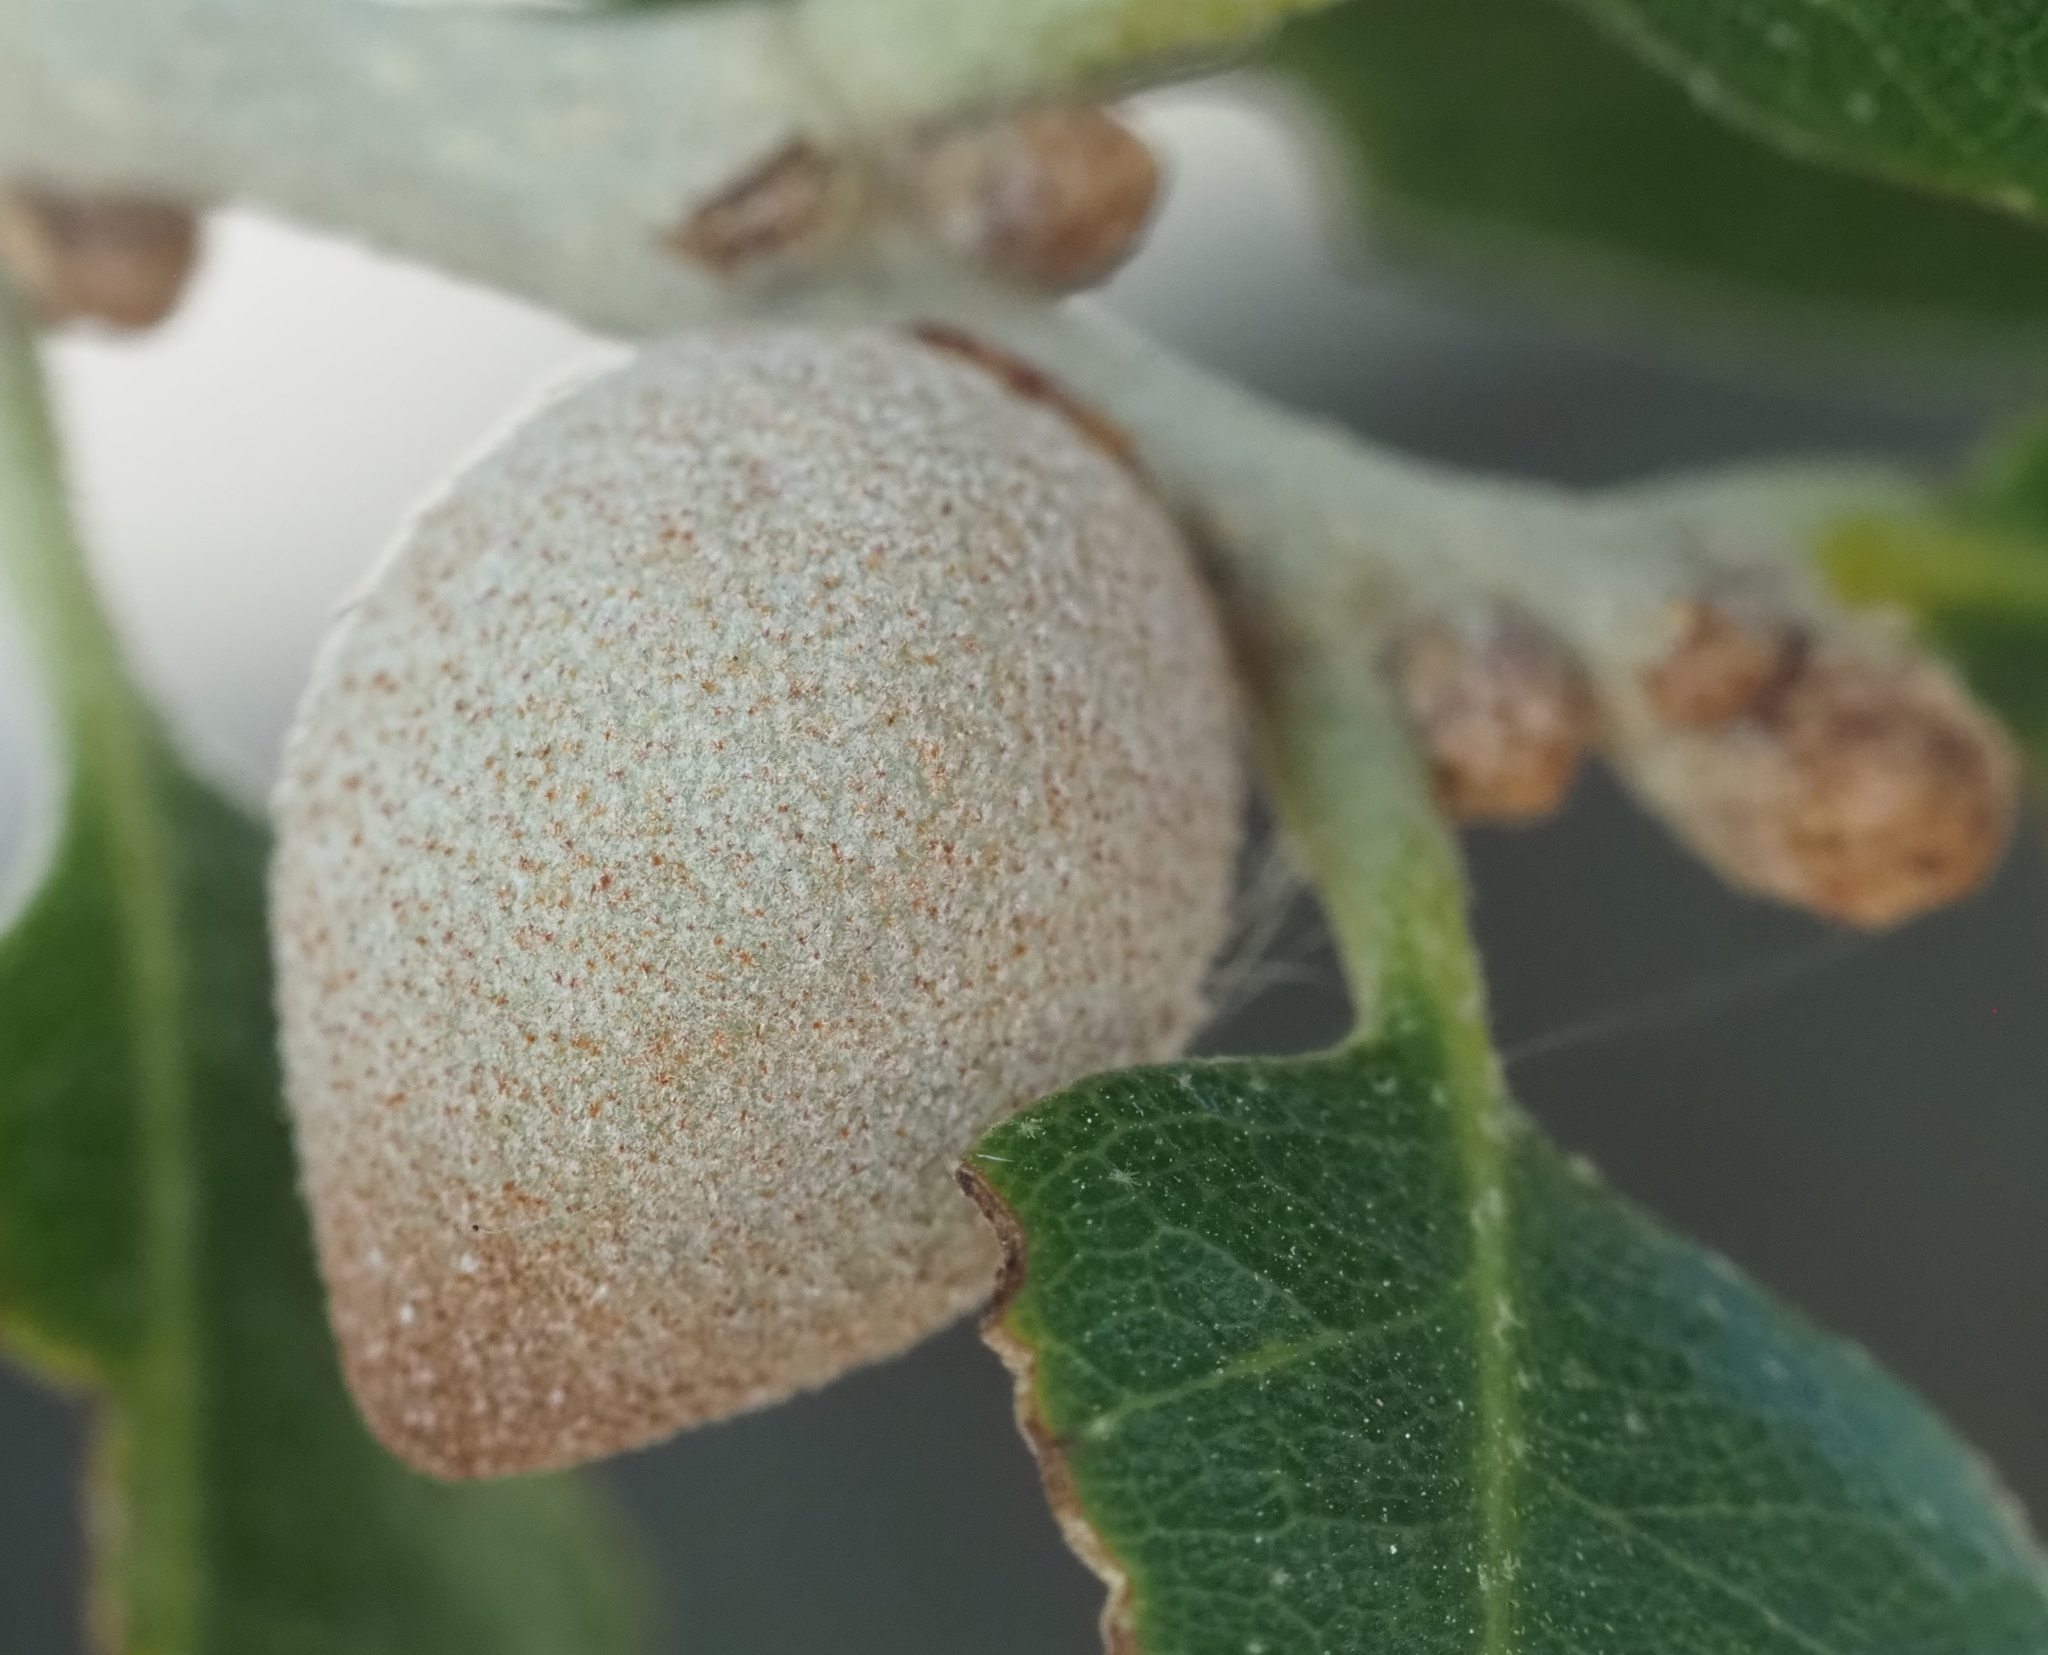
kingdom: Animalia
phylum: Arthropoda
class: Insecta
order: Hymenoptera
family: Cynipidae
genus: Disholcaspis
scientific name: Disholcaspis
